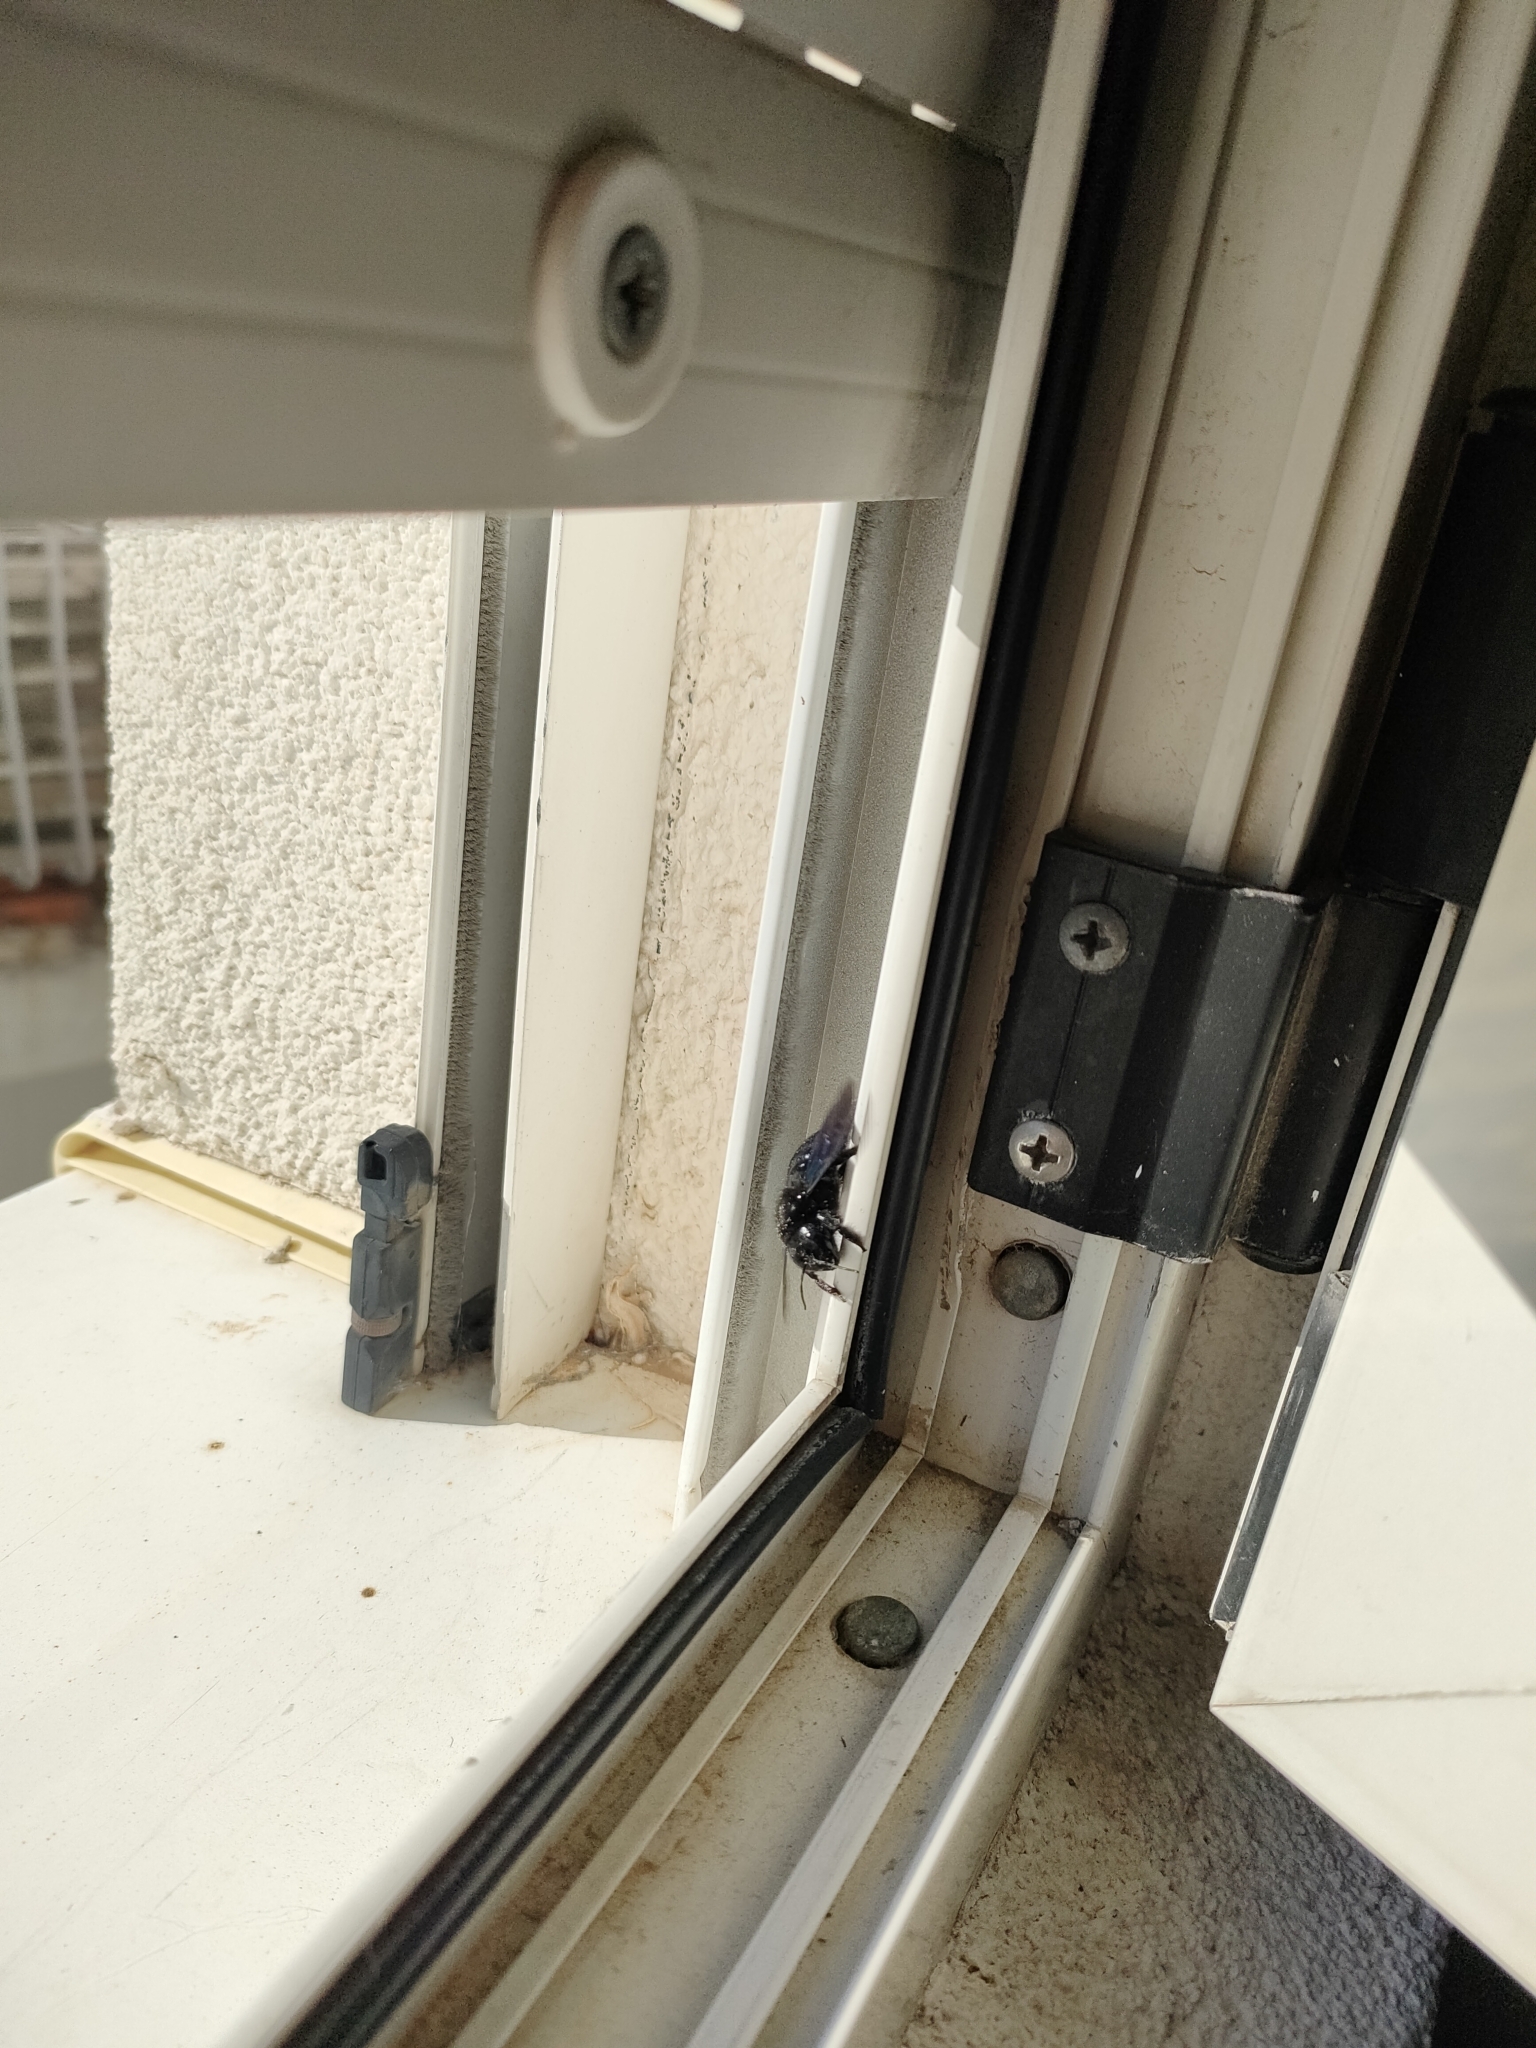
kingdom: Animalia
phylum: Arthropoda
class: Insecta
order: Hymenoptera
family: Apidae
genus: Xylocopa
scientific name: Xylocopa violacea
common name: Violet carpenter bee
